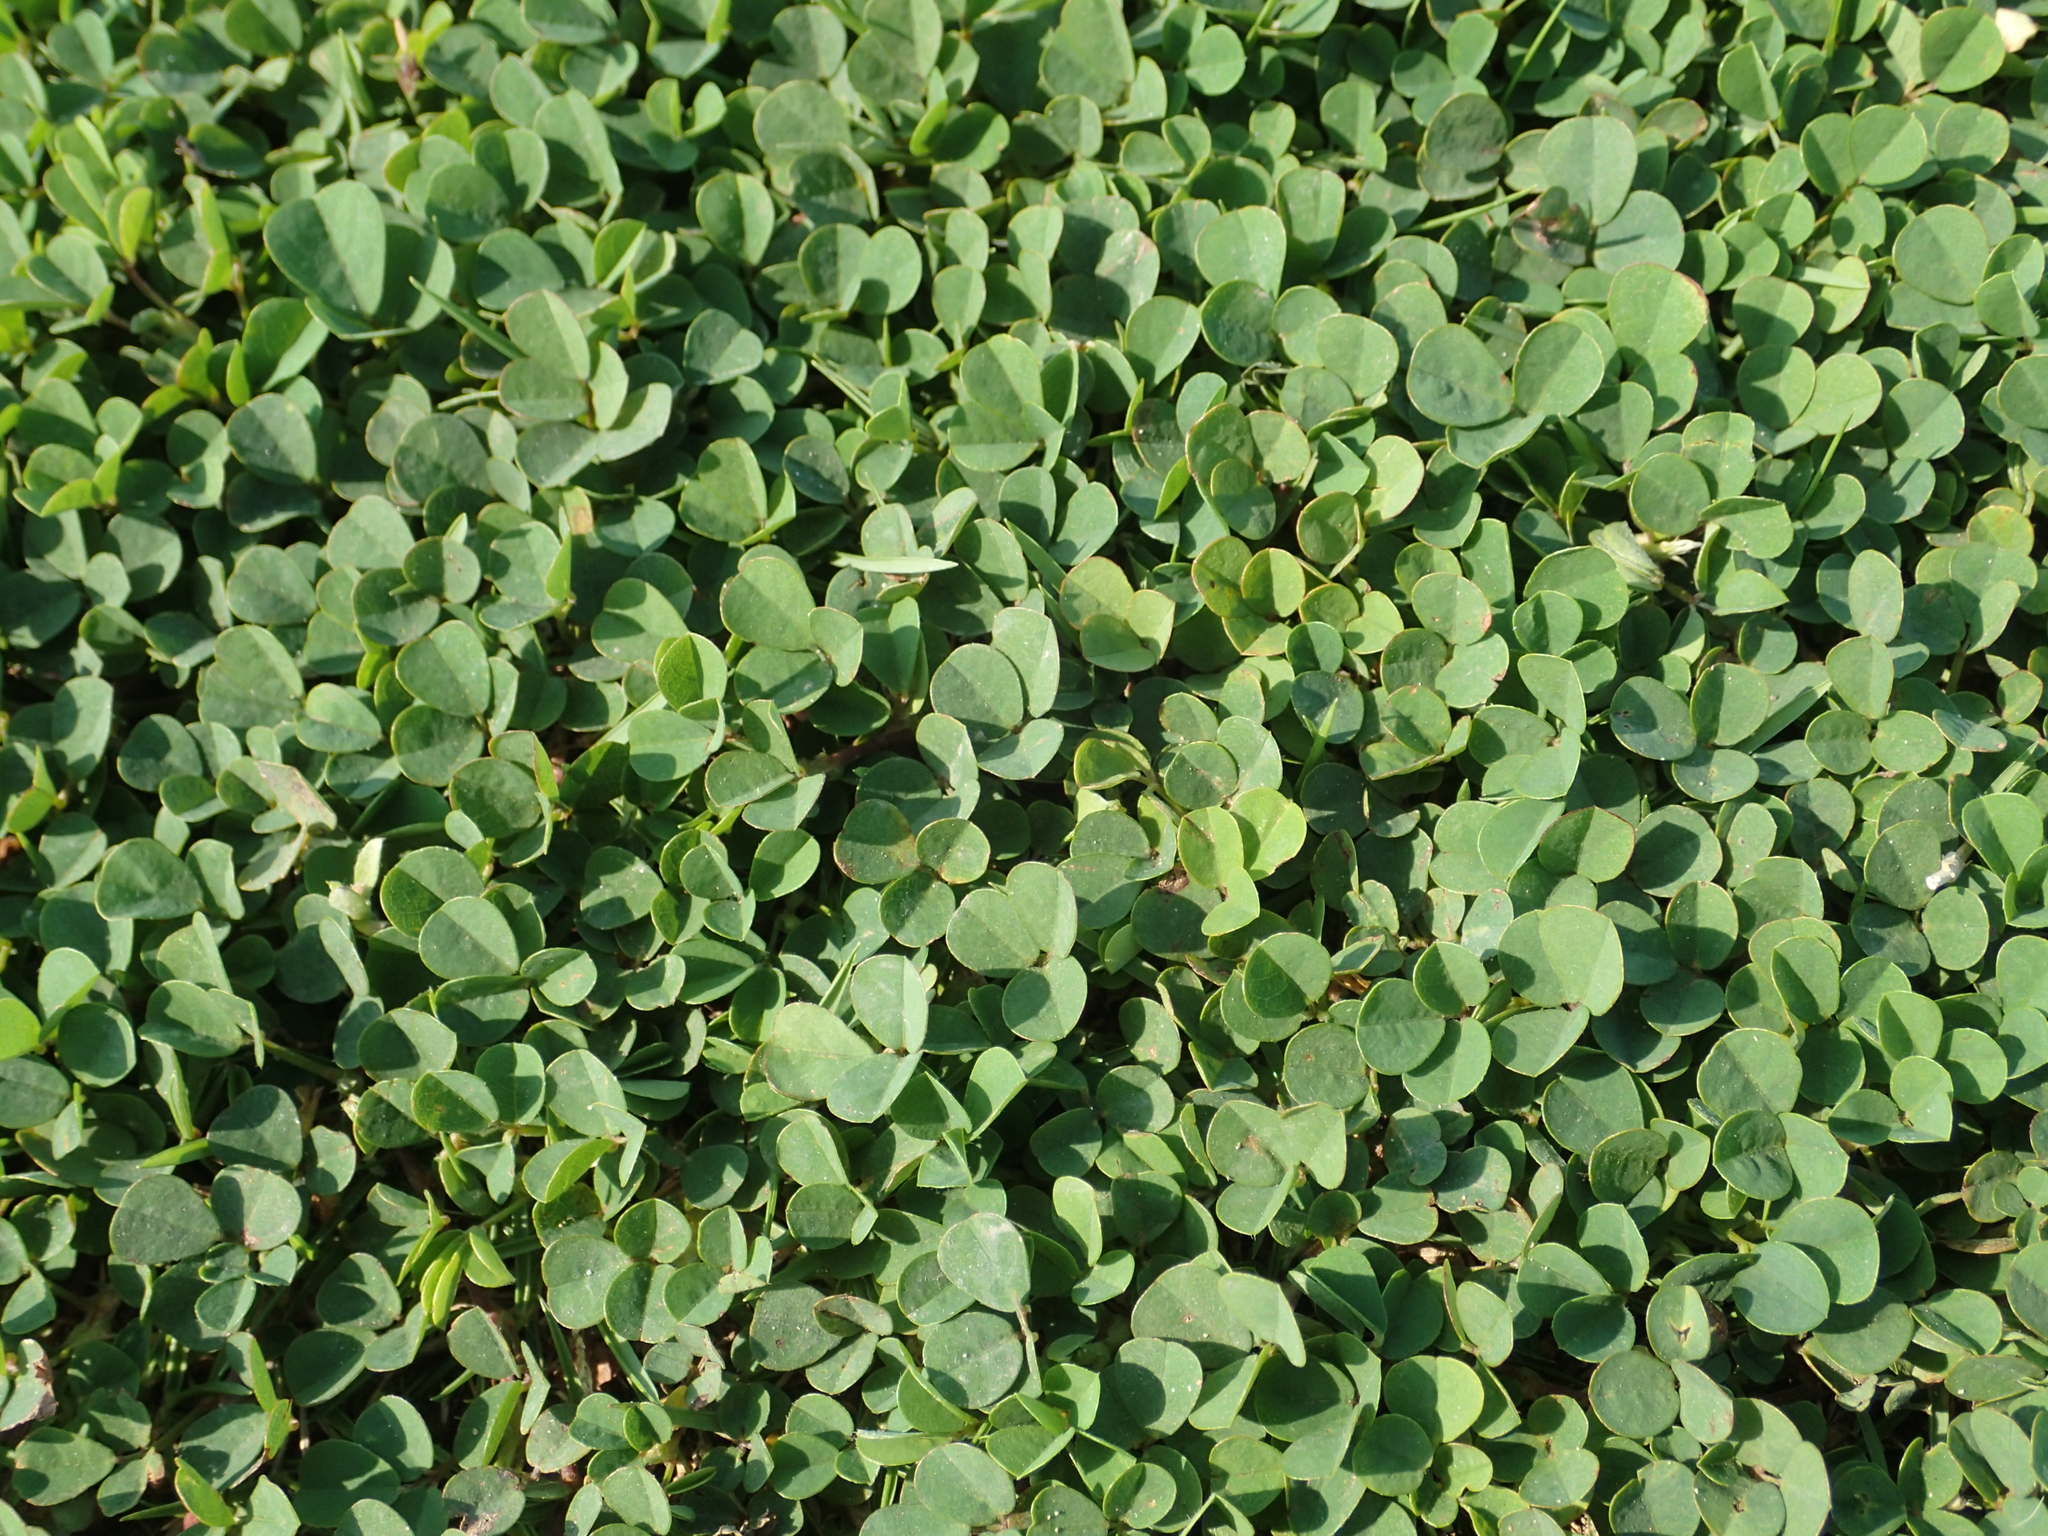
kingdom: Plantae
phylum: Tracheophyta
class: Magnoliopsida
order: Fabales
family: Fabaceae
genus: Grona
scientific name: Grona triflora
